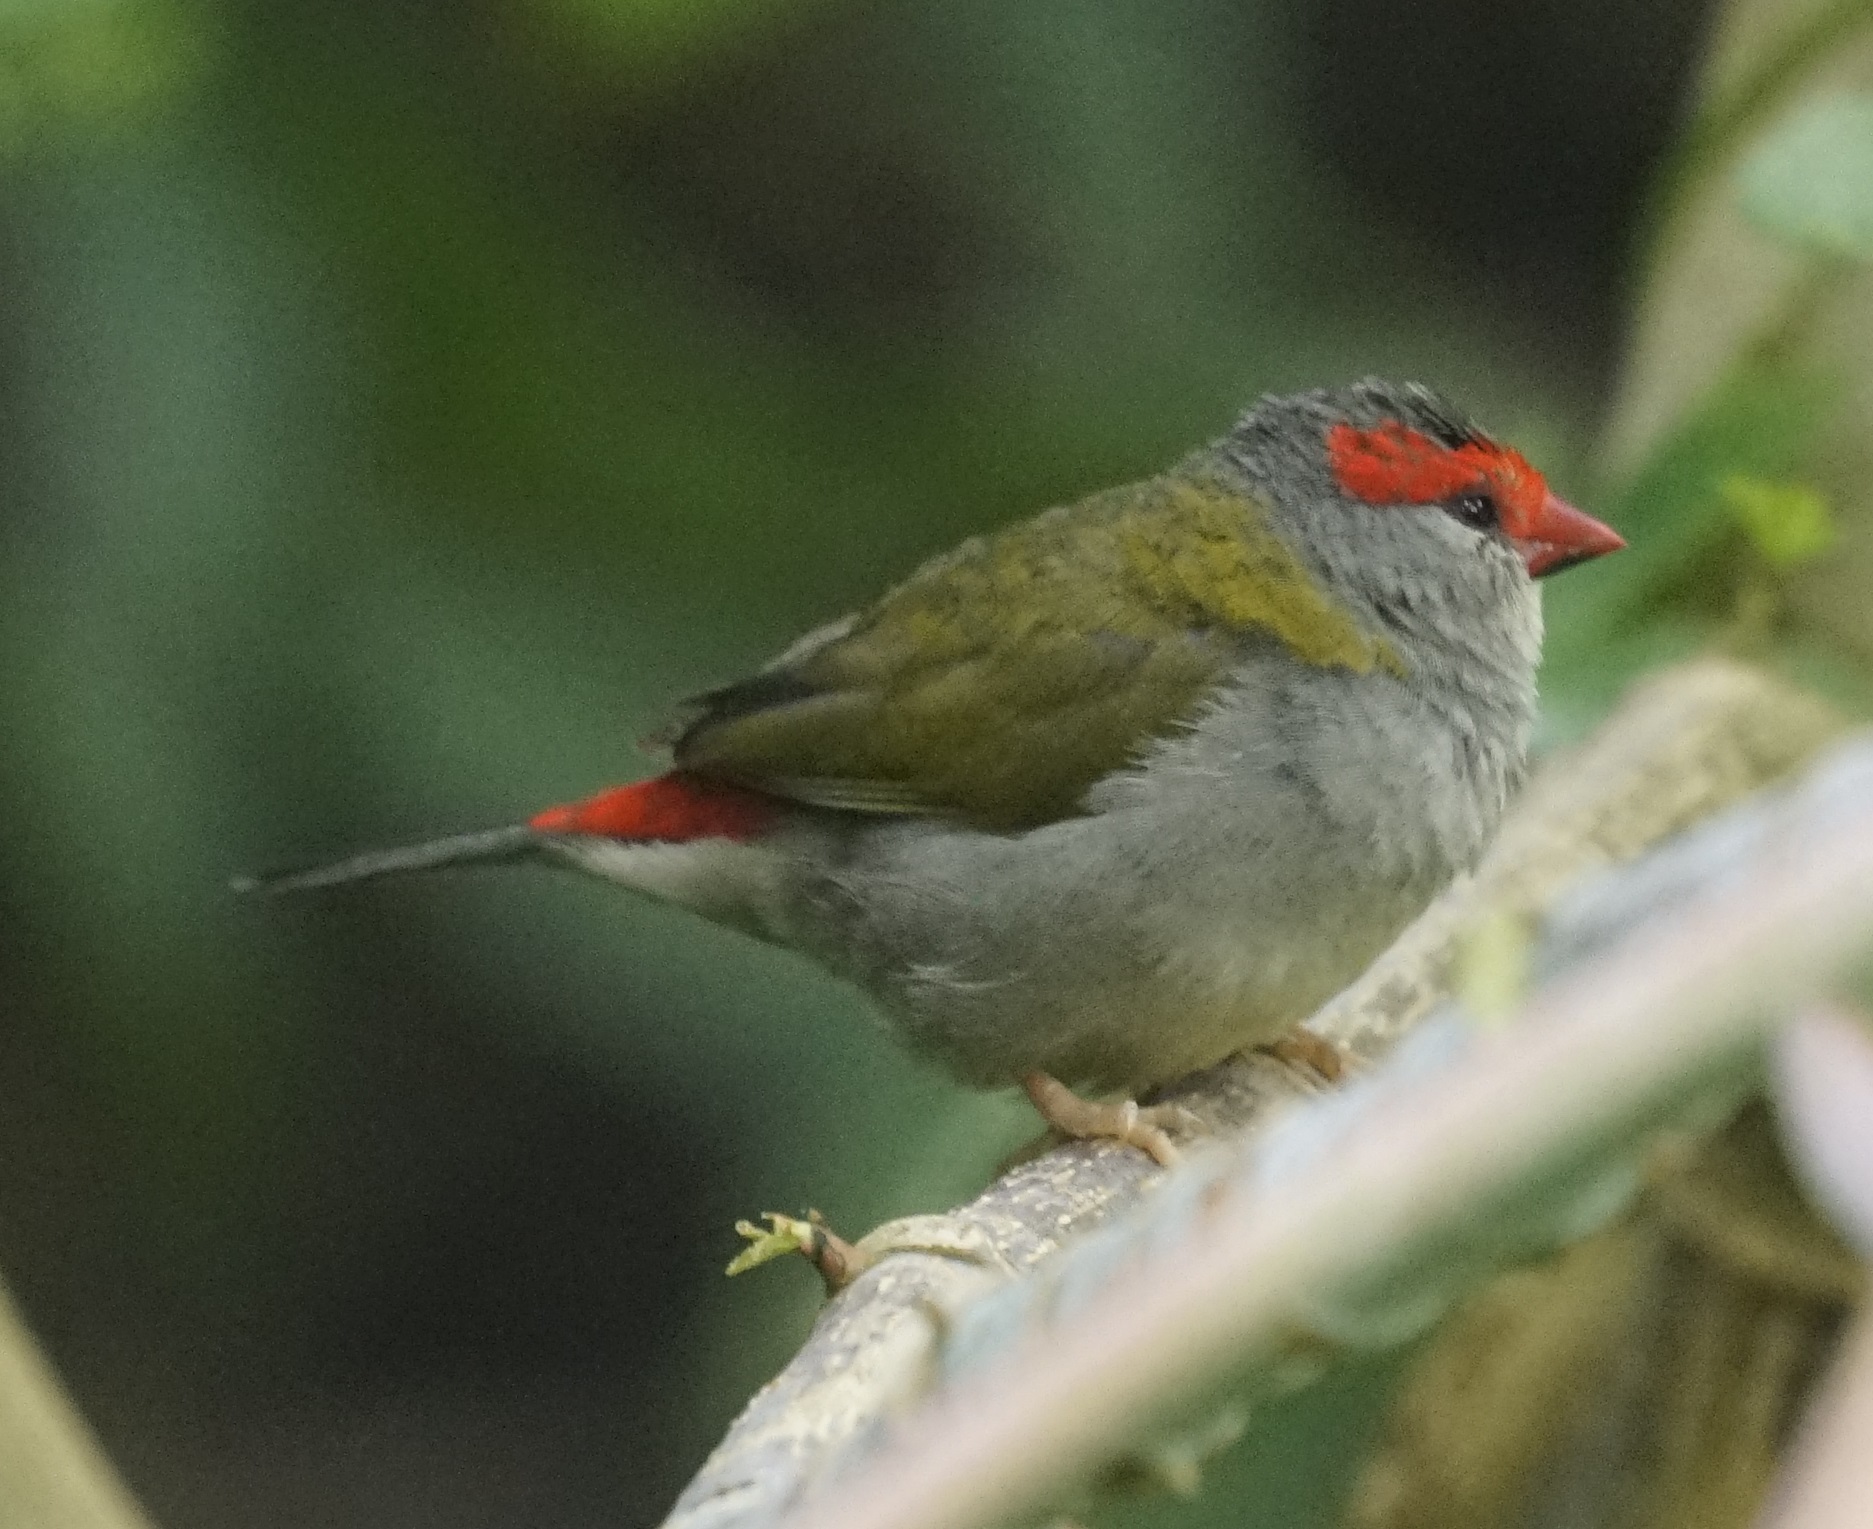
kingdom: Animalia
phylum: Chordata
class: Aves
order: Passeriformes
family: Estrildidae
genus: Neochmia
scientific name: Neochmia temporalis
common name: Red-browed finch
